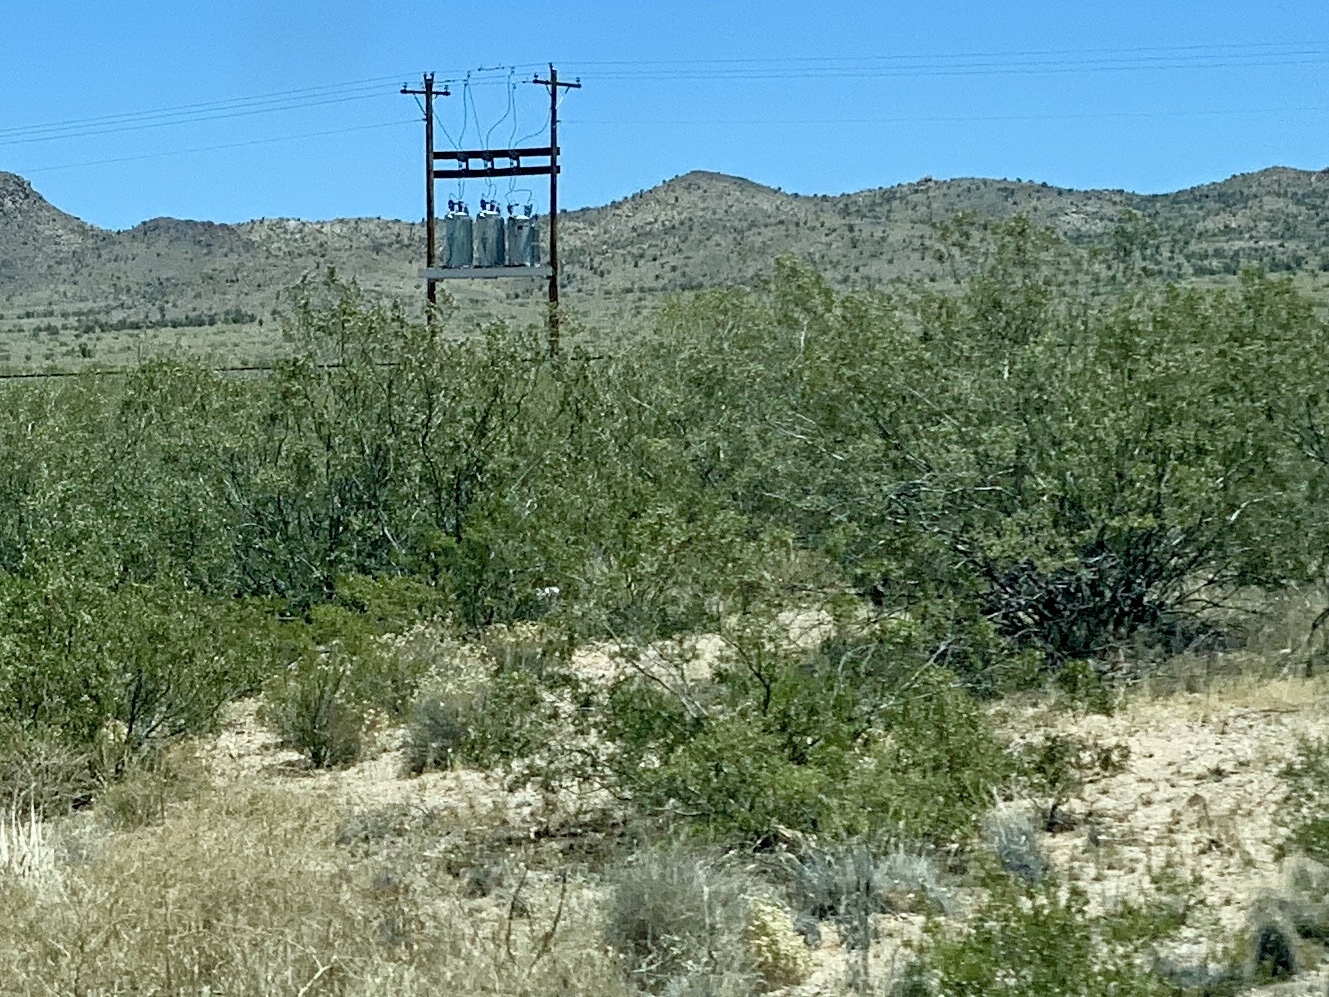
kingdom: Plantae
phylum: Tracheophyta
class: Magnoliopsida
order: Zygophyllales
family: Zygophyllaceae
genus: Larrea
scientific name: Larrea tridentata
